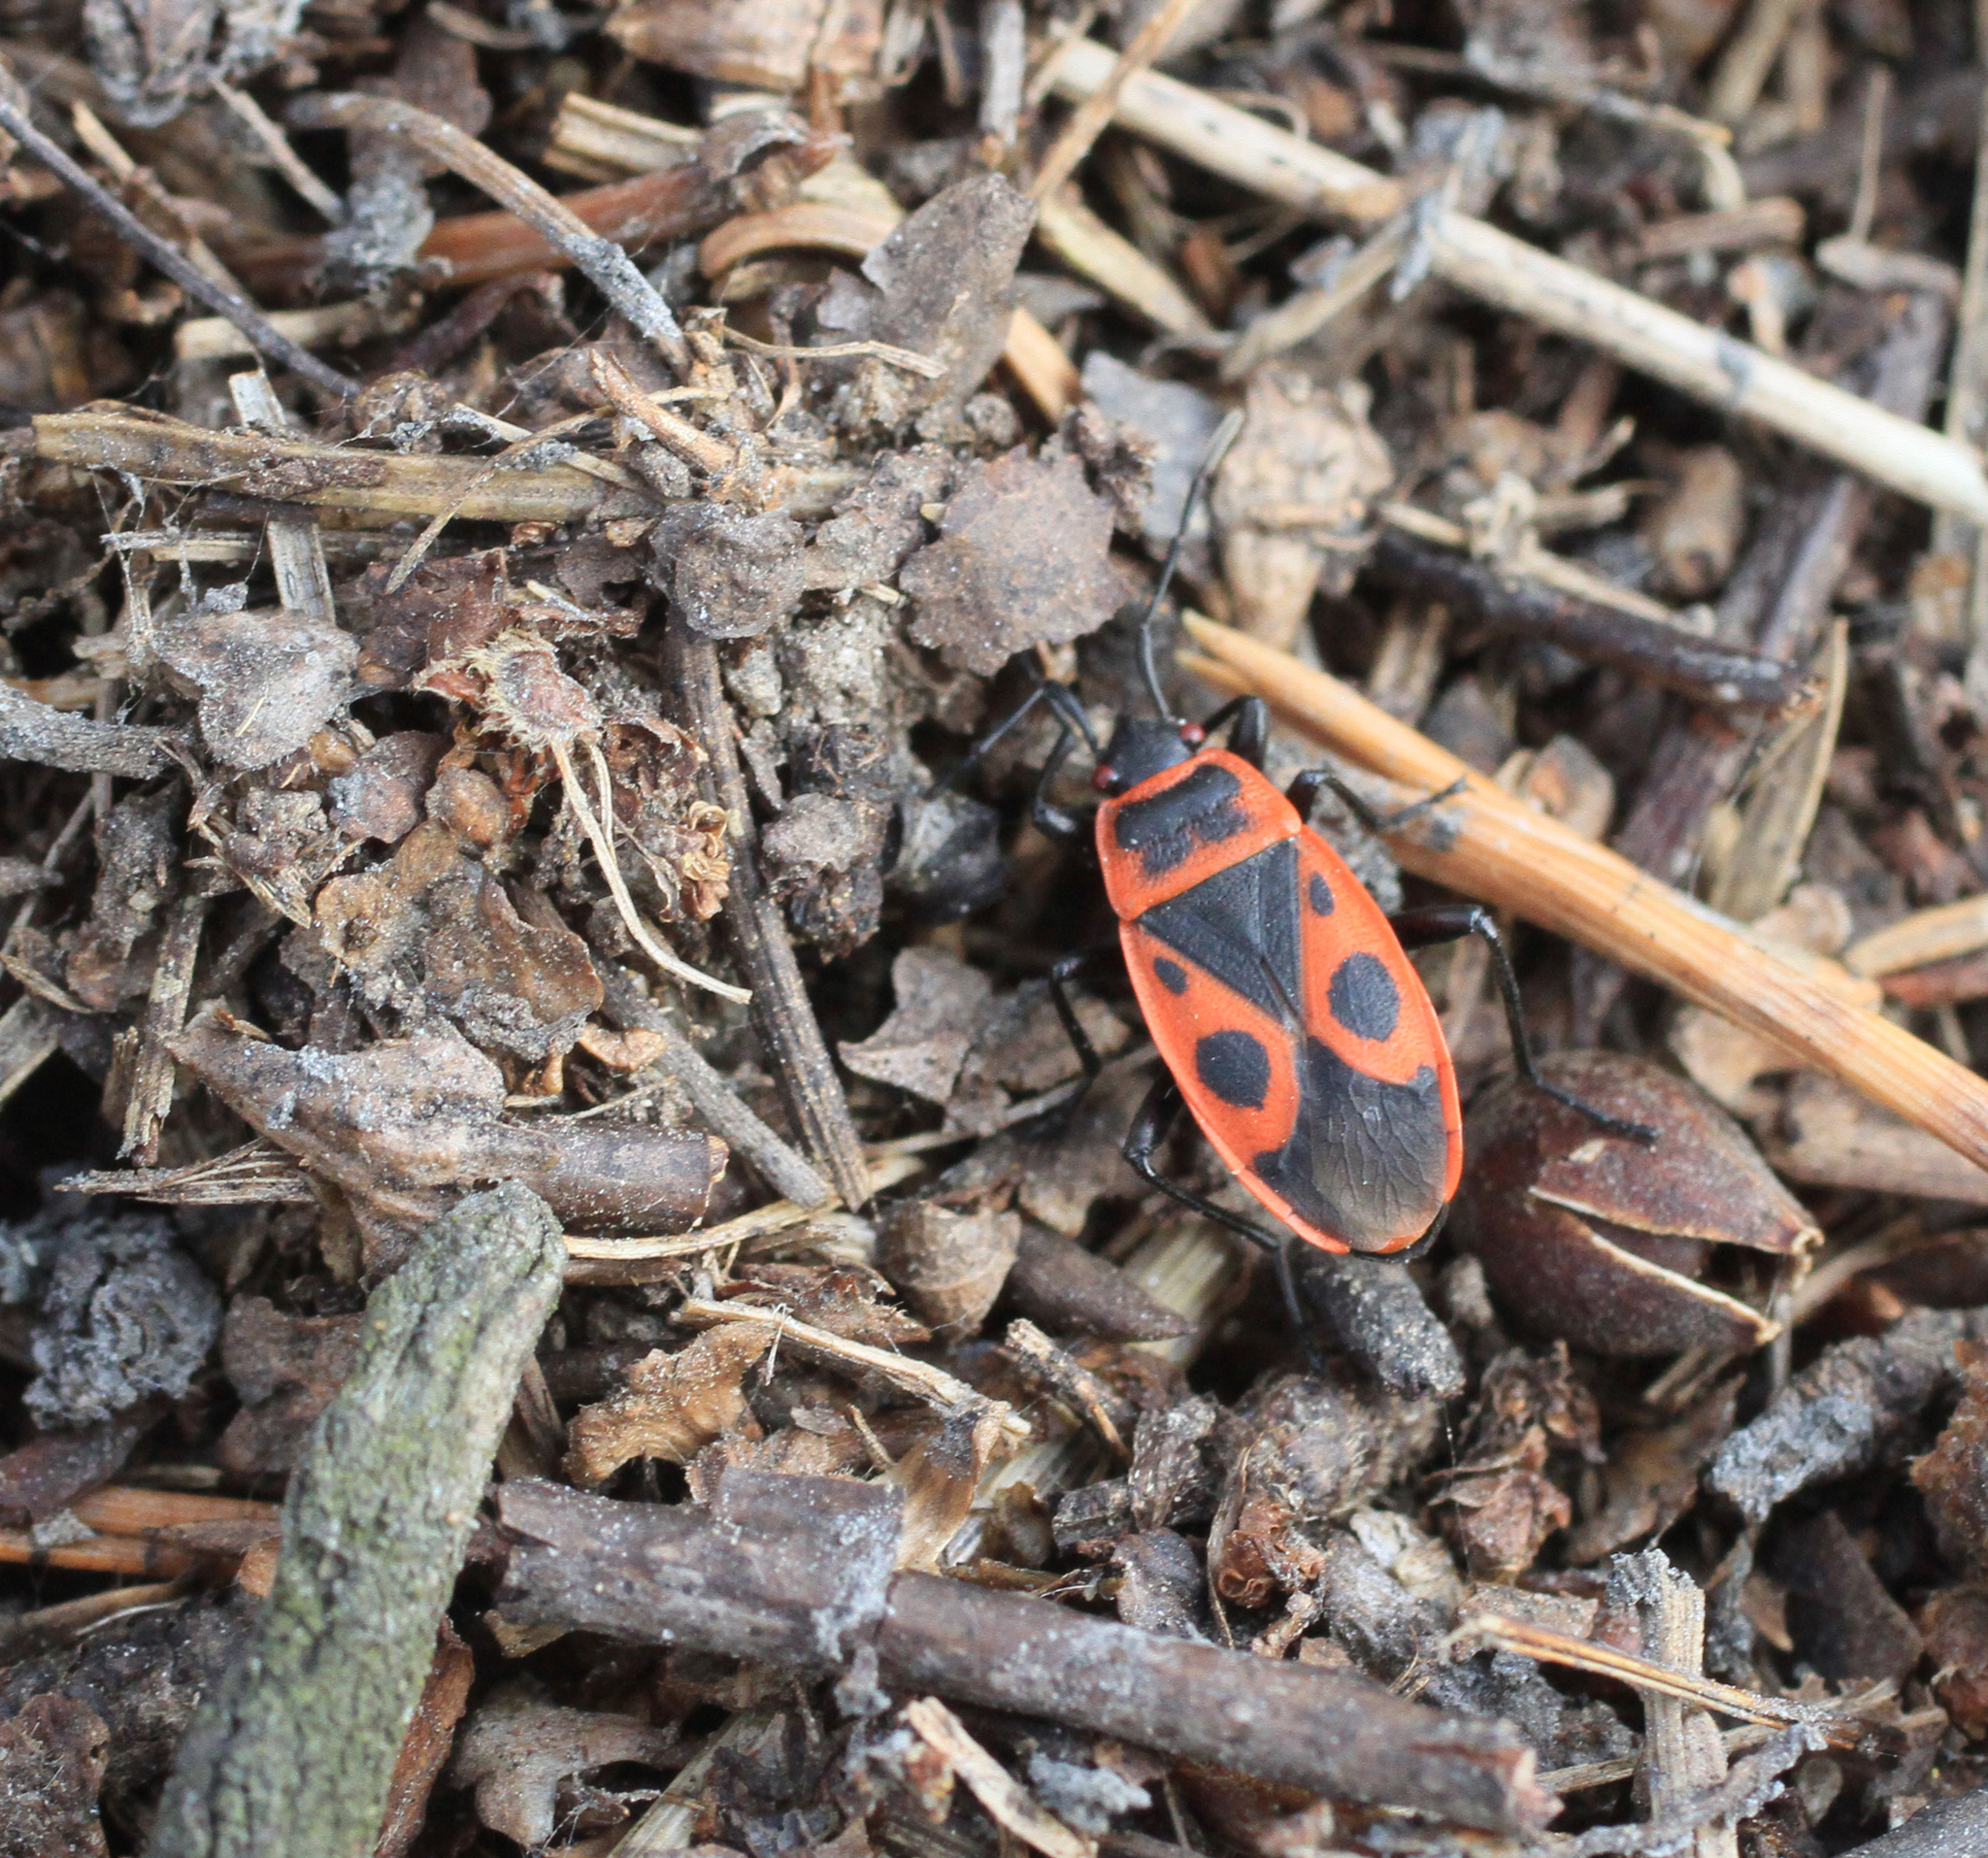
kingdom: Animalia
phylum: Arthropoda
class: Insecta
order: Hemiptera
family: Pyrrhocoridae
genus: Pyrrhocoris
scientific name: Pyrrhocoris apterus
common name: Firebug
